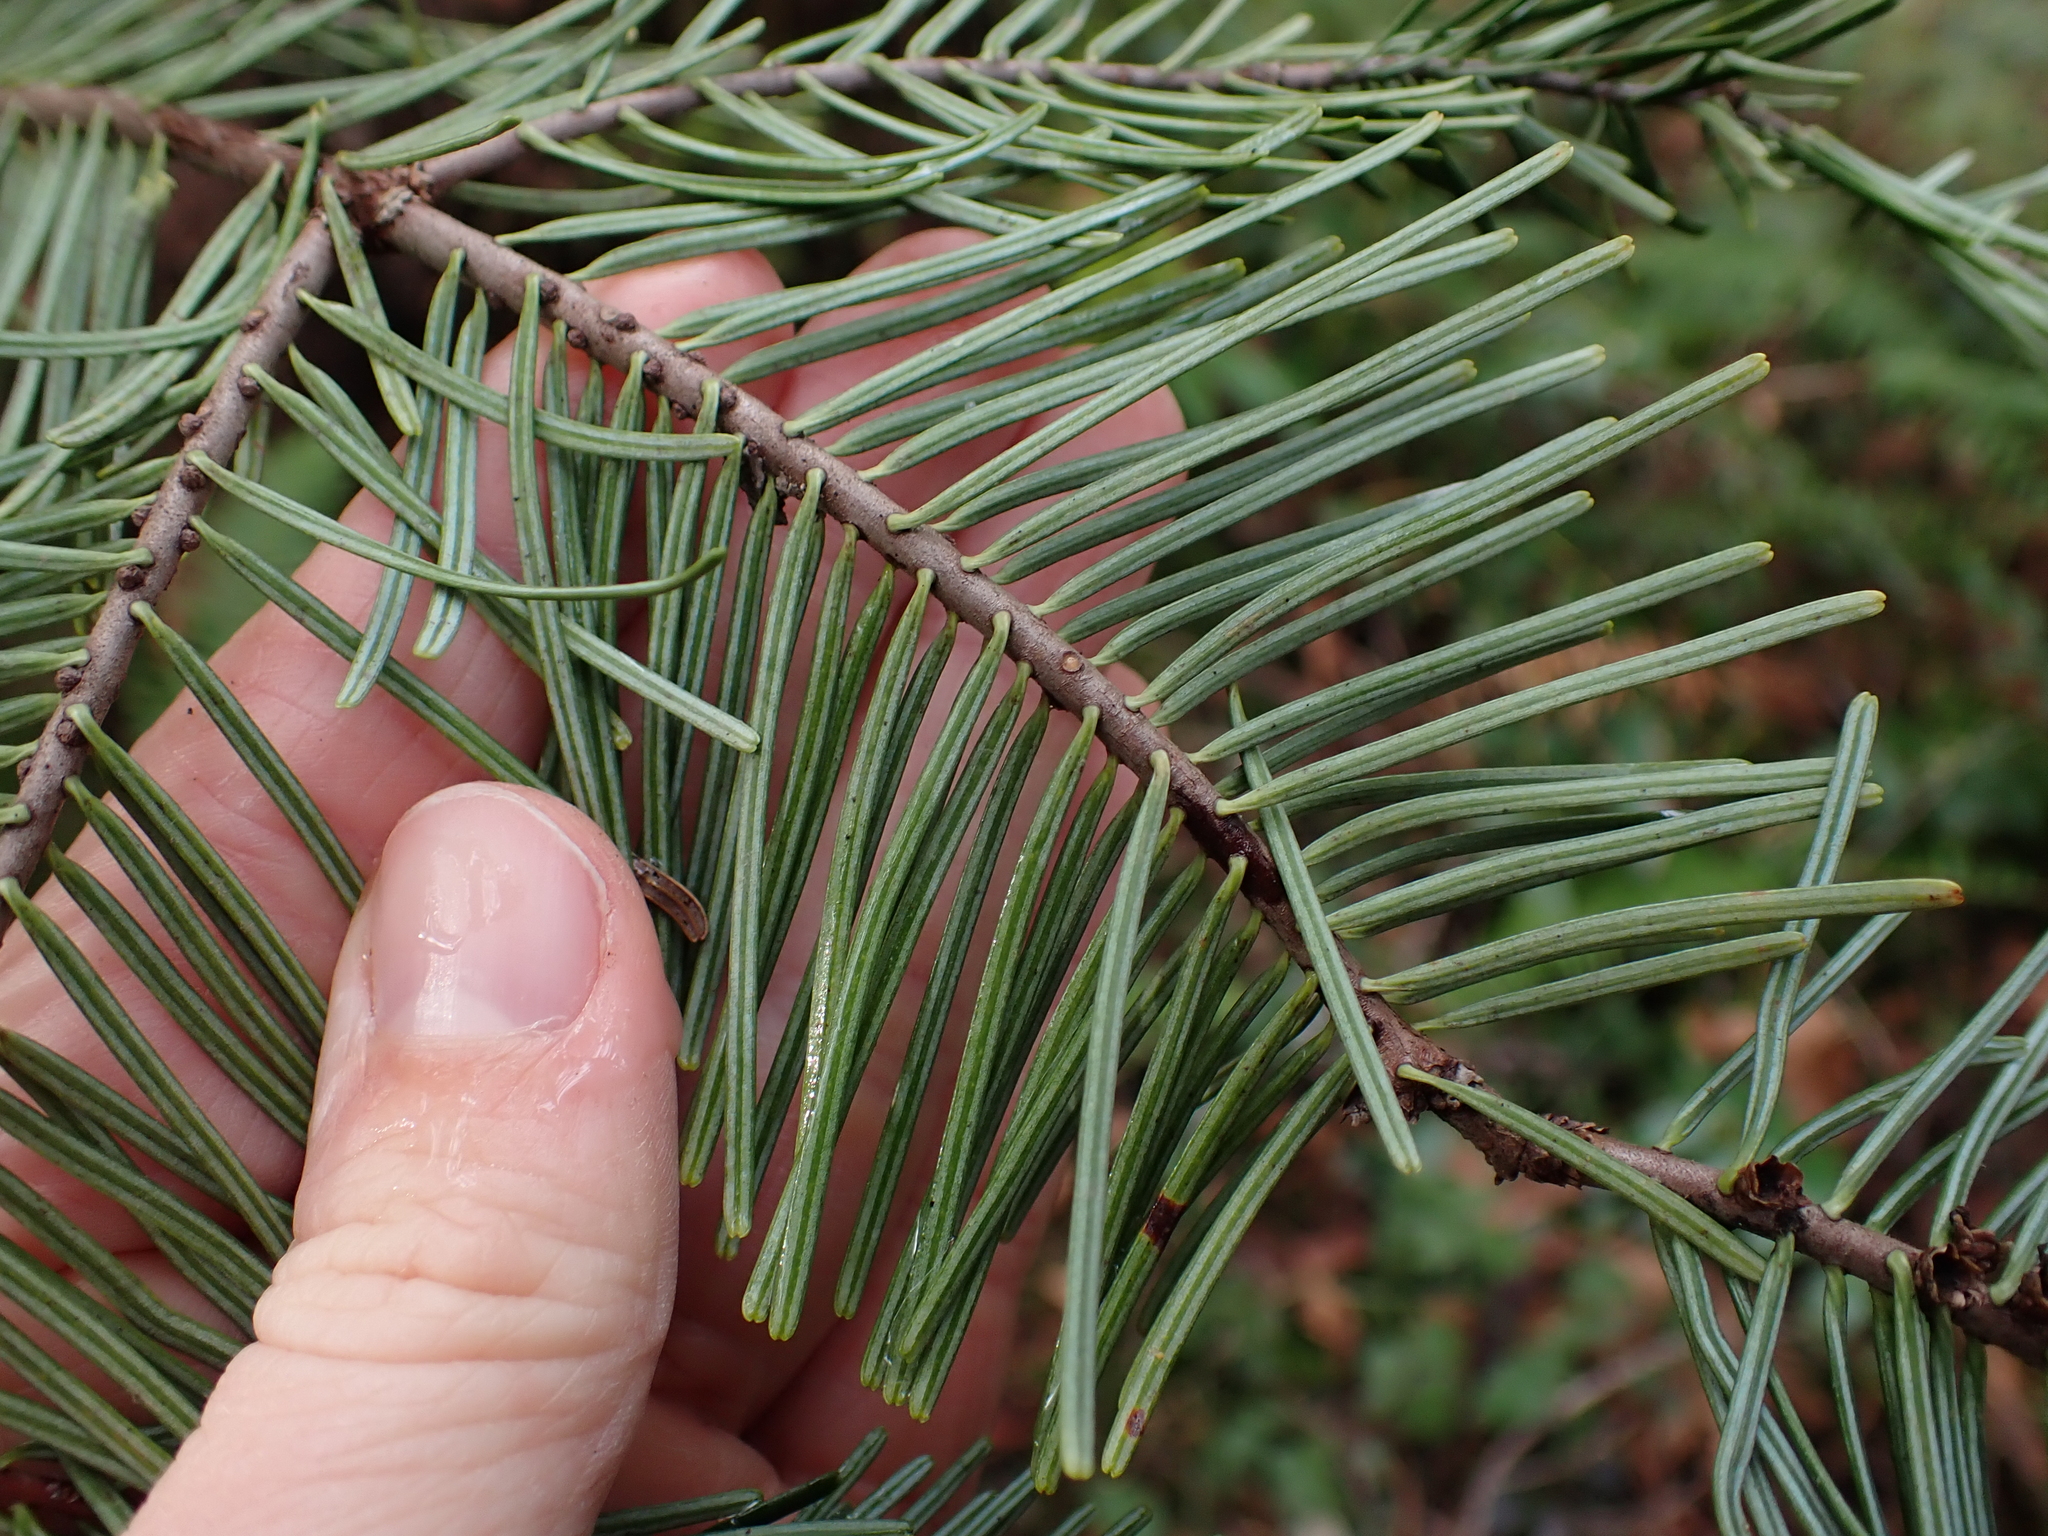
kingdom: Plantae
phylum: Tracheophyta
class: Pinopsida
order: Pinales
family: Pinaceae
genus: Abies
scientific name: Abies grandis
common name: Giant fir
